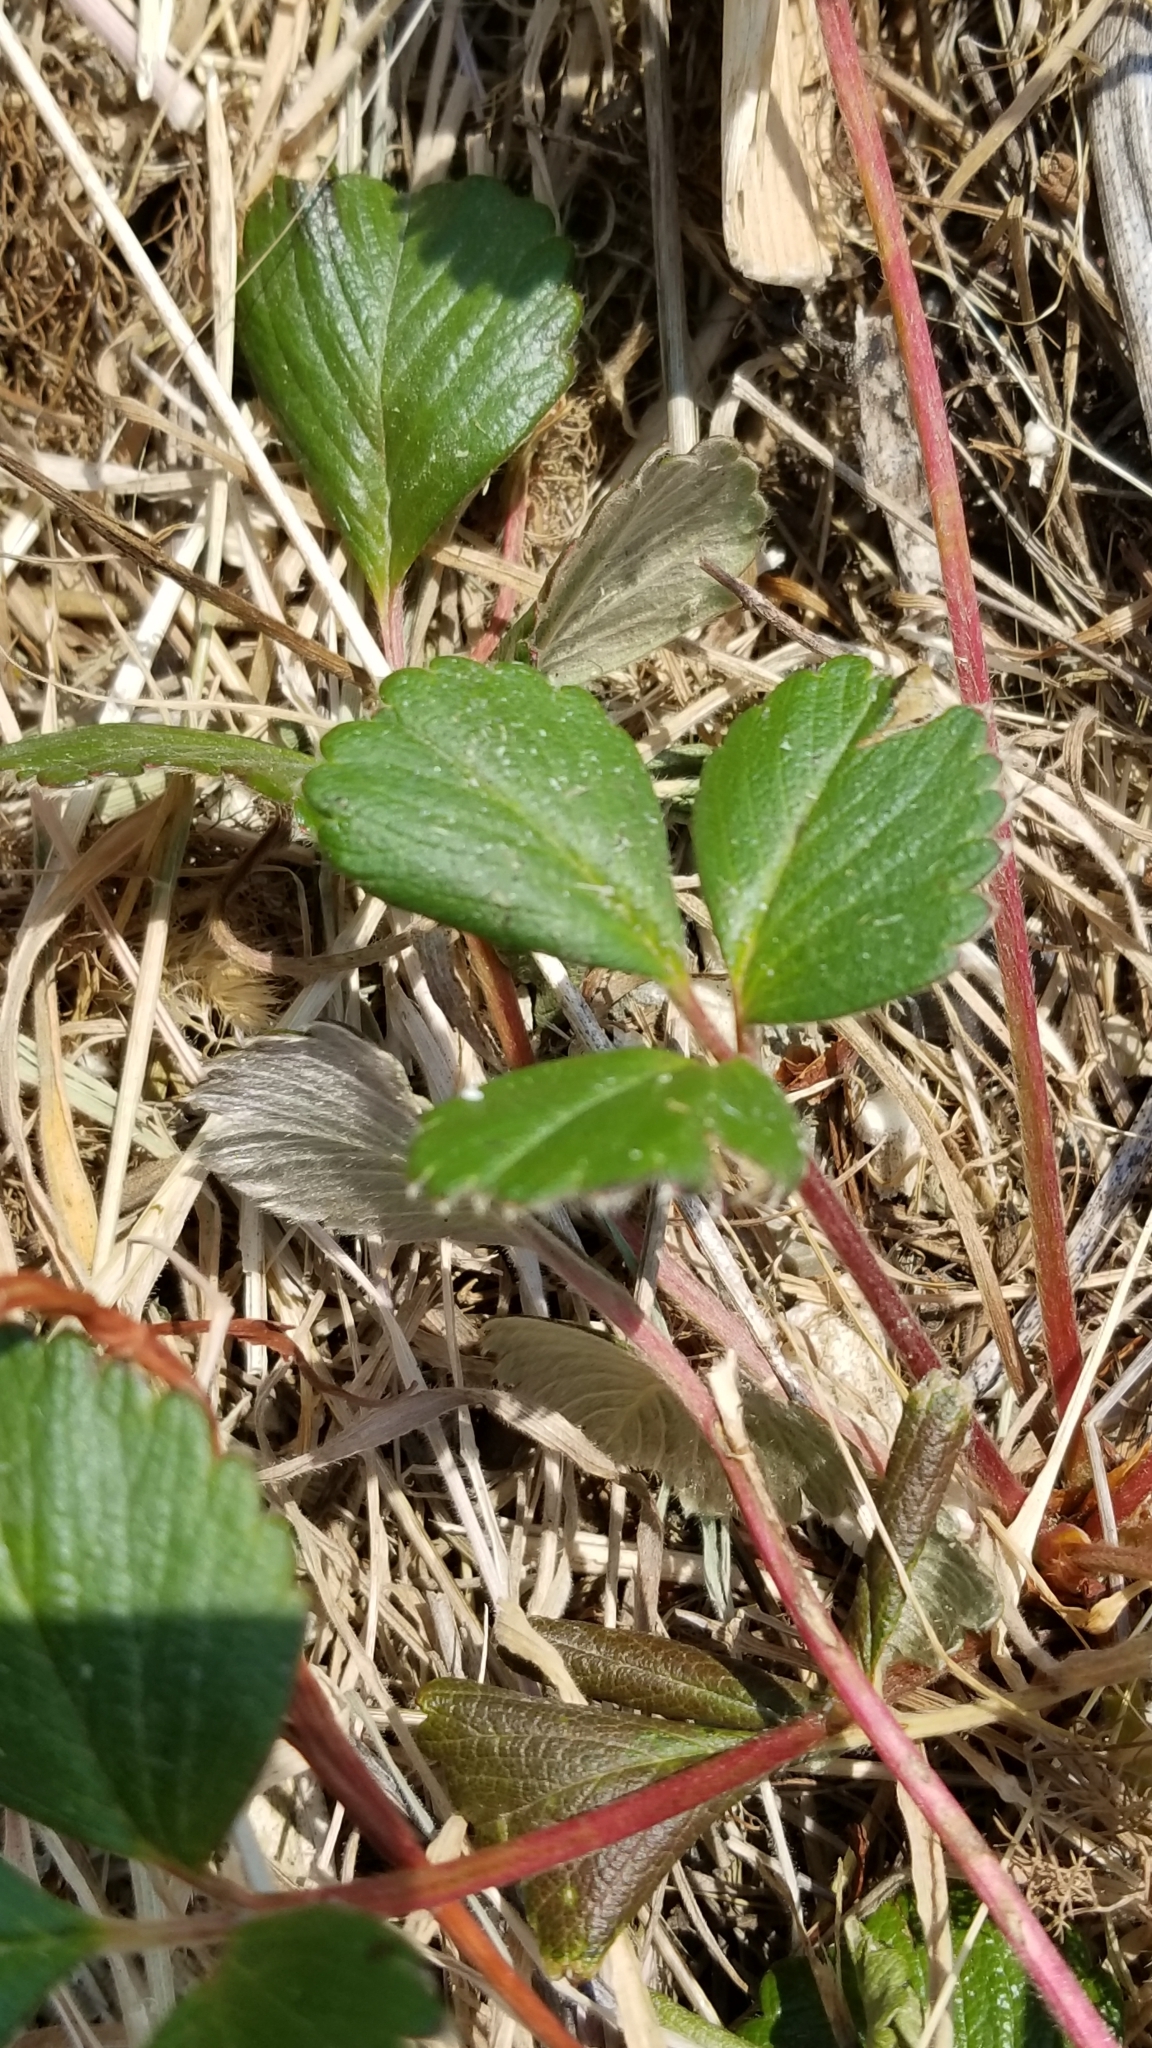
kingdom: Plantae
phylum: Tracheophyta
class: Magnoliopsida
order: Rosales
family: Rosaceae
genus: Fragaria
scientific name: Fragaria chiloensis
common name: Beach strawberry
